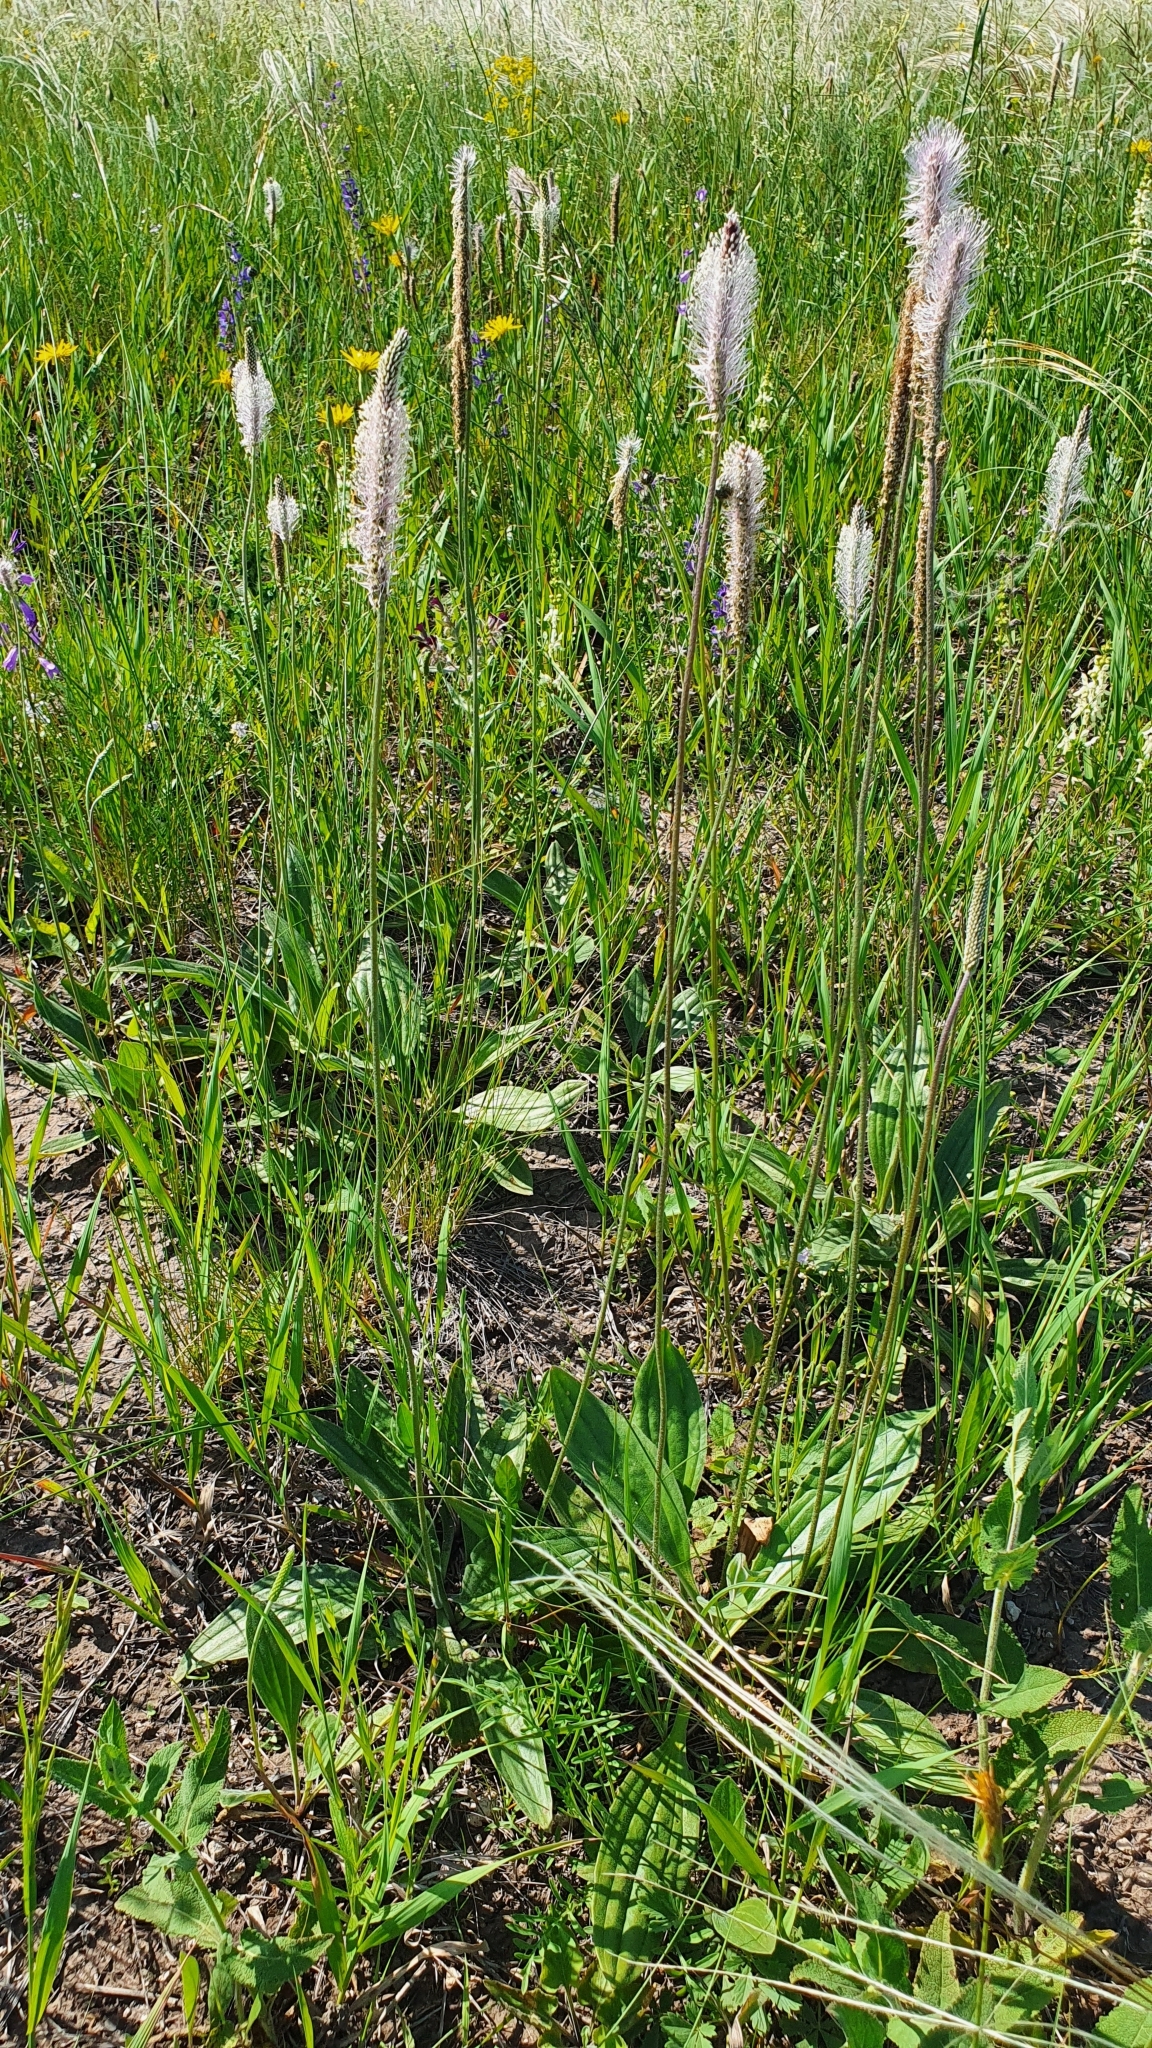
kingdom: Plantae
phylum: Tracheophyta
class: Magnoliopsida
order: Lamiales
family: Plantaginaceae
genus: Plantago
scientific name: Plantago urvillei
